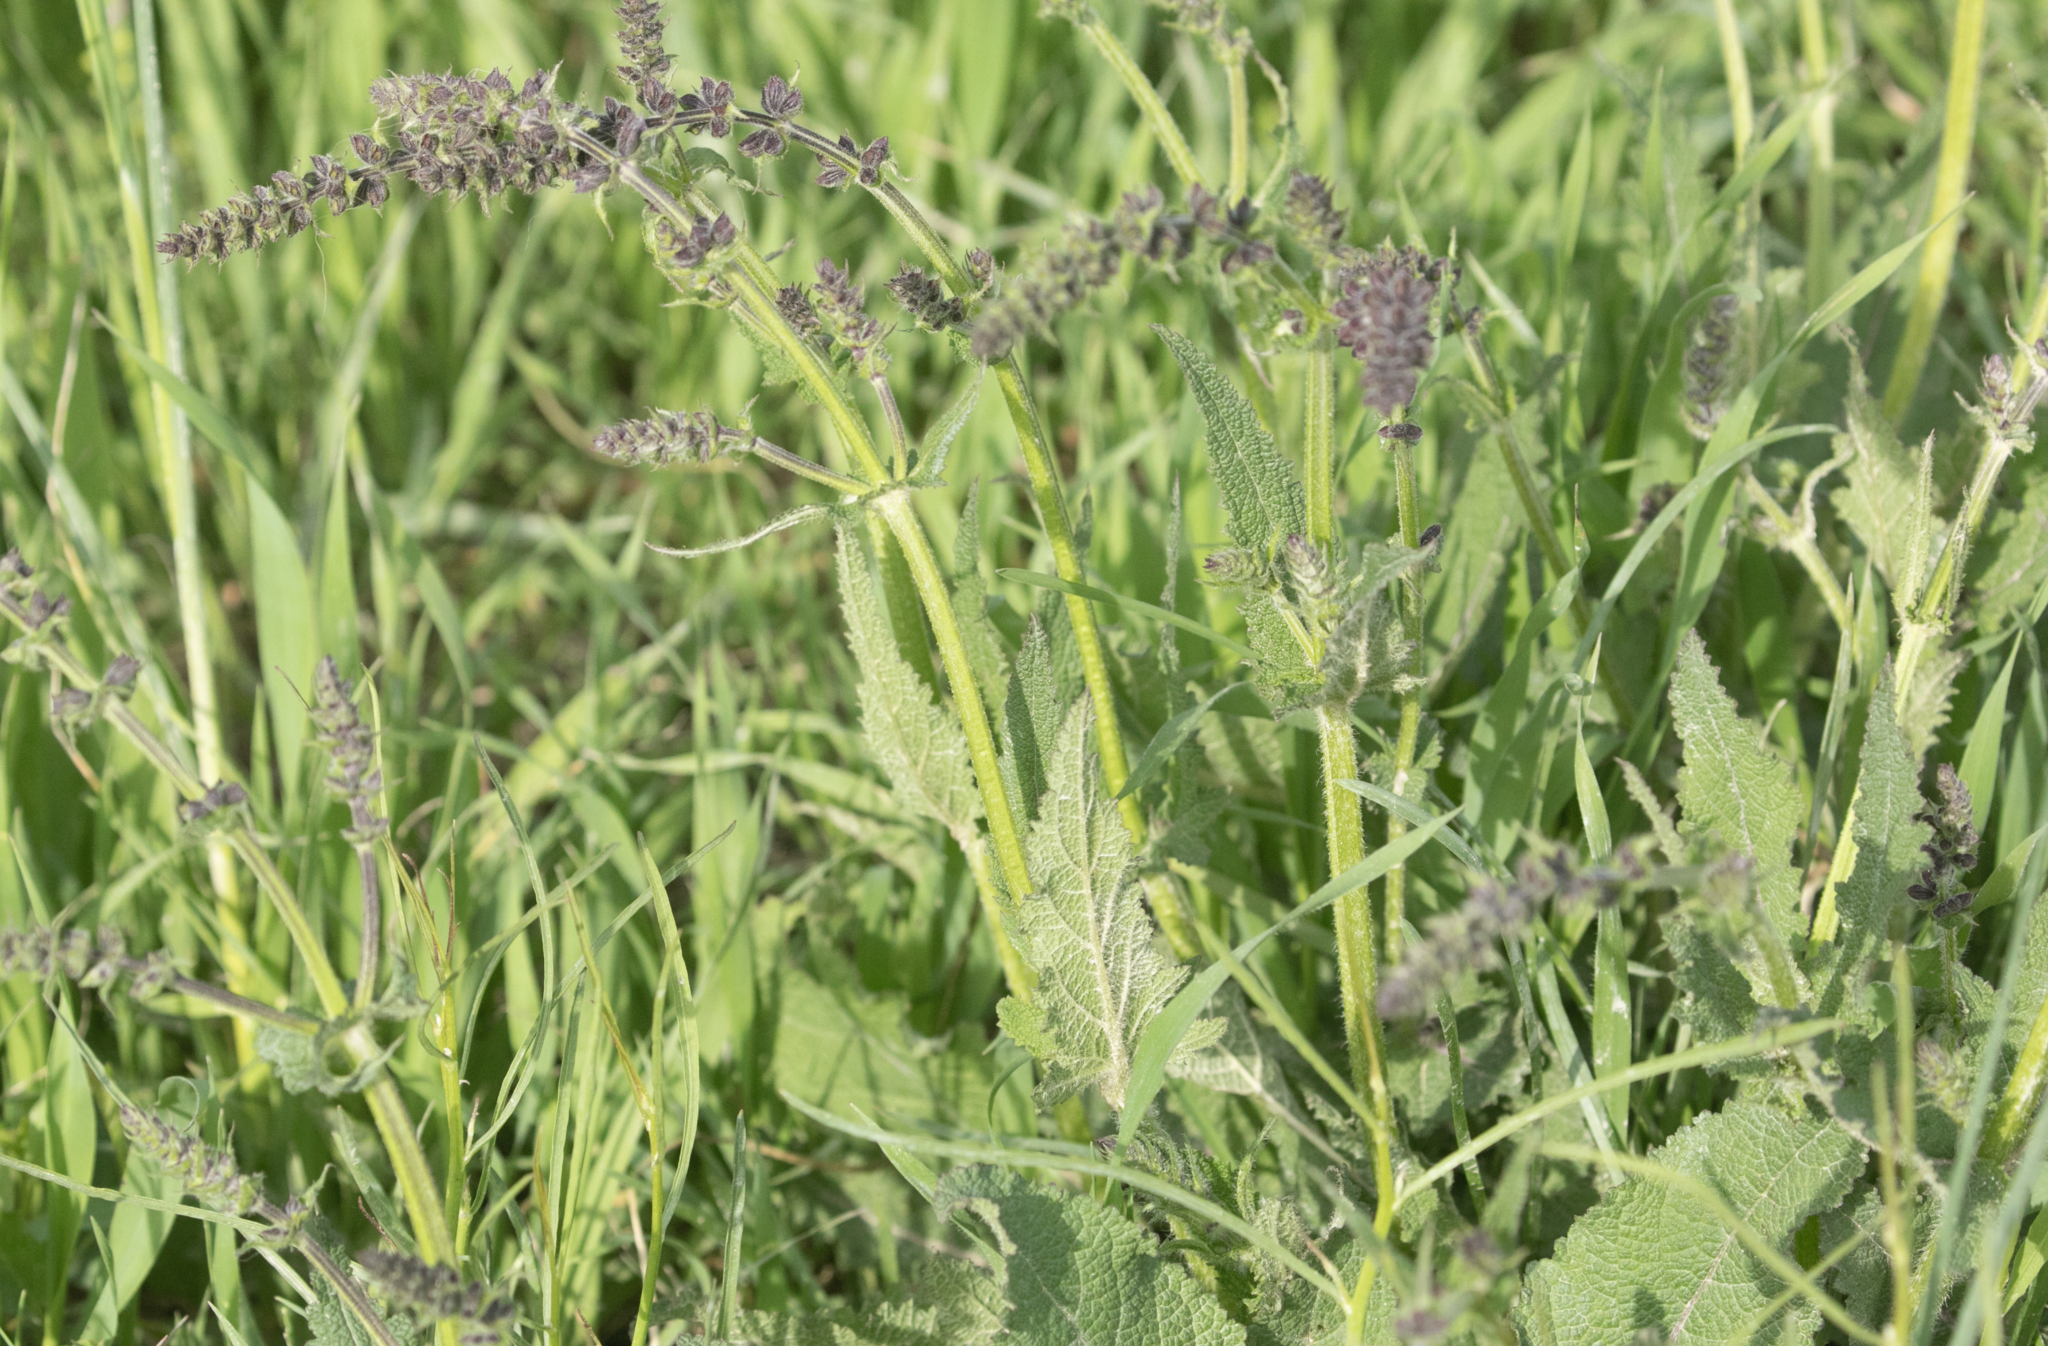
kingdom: Plantae
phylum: Tracheophyta
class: Magnoliopsida
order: Lamiales
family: Lamiaceae
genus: Salvia
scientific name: Salvia pratensis
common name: Meadow sage
